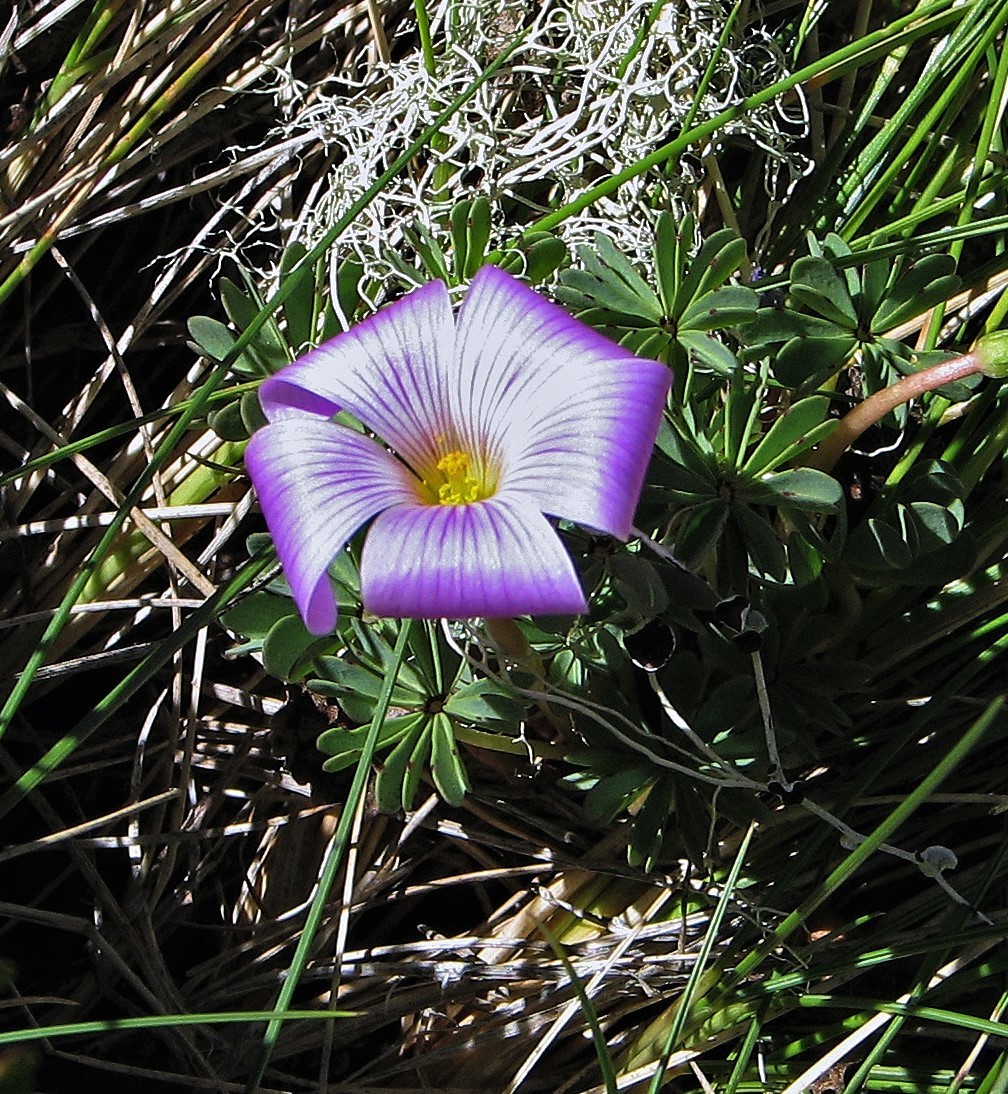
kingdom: Plantae
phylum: Tracheophyta
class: Magnoliopsida
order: Oxalidales
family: Oxalidaceae
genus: Oxalis
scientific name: Oxalis adenophylla
